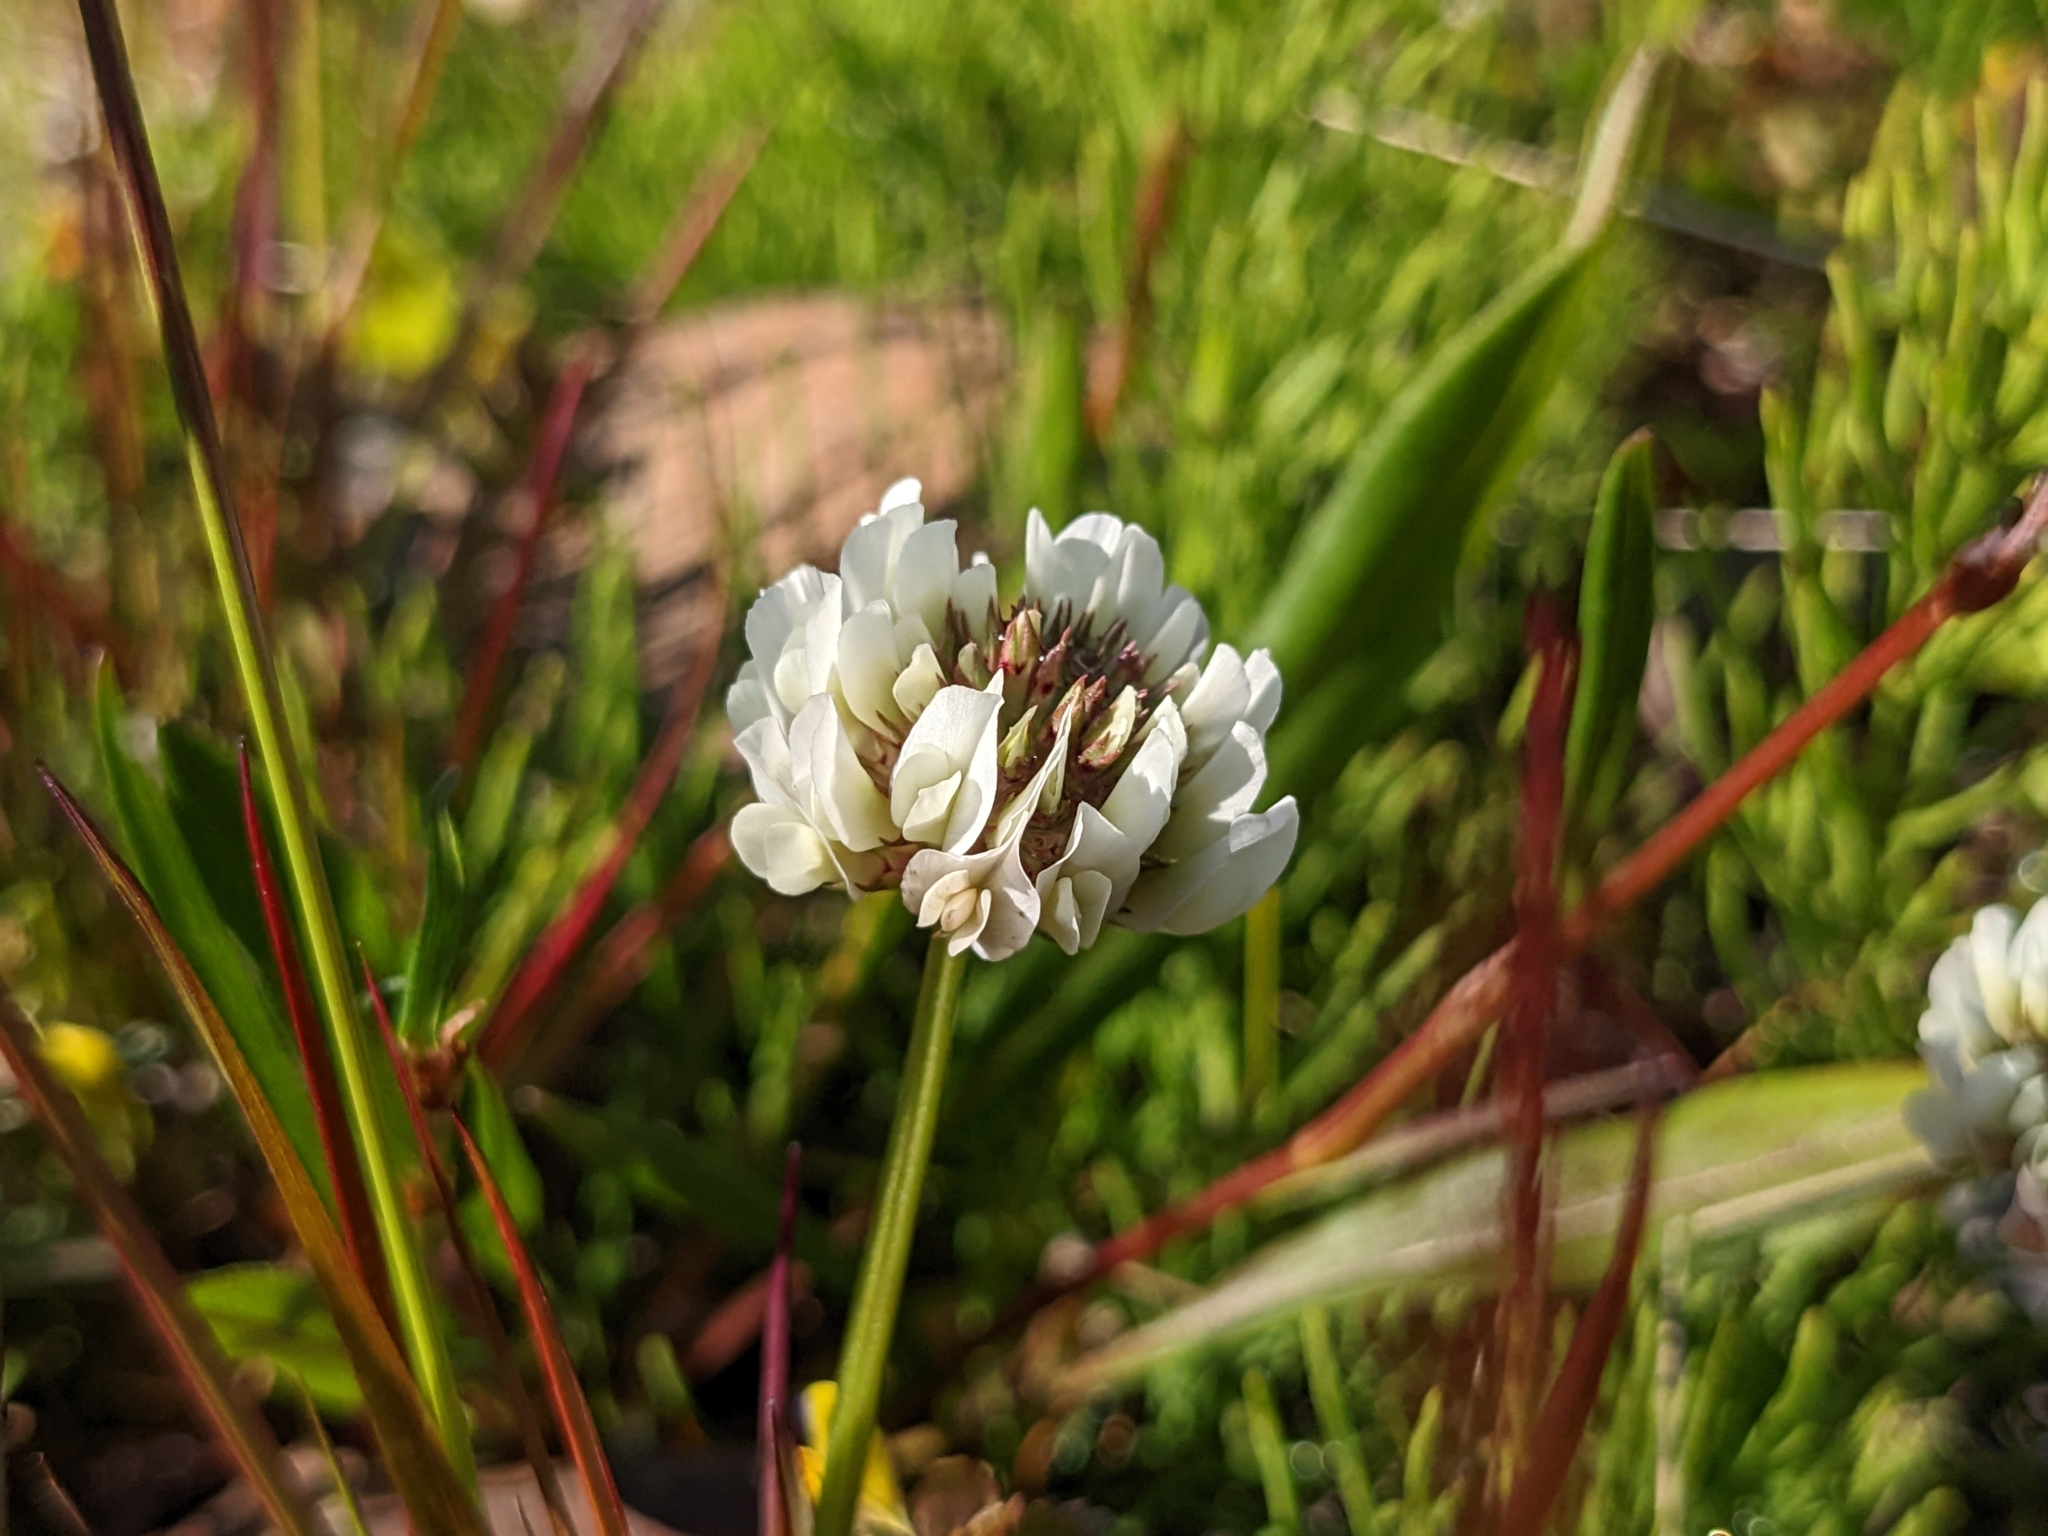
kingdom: Plantae
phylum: Tracheophyta
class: Magnoliopsida
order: Fabales
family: Fabaceae
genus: Trifolium
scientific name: Trifolium repens
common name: White clover
